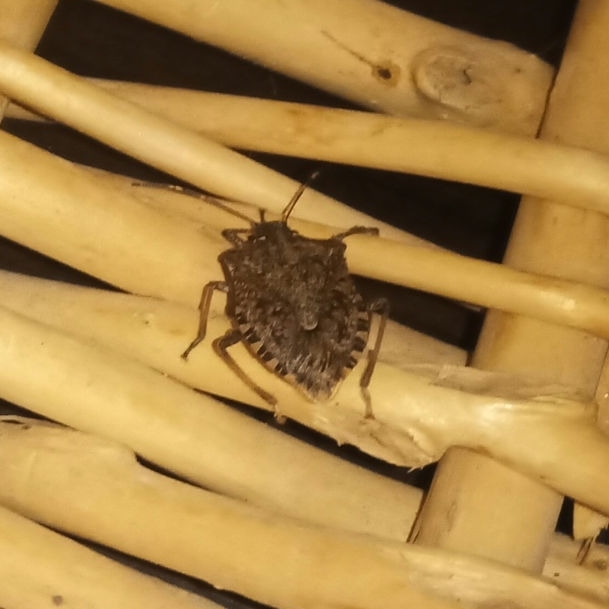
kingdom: Animalia
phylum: Arthropoda
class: Insecta
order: Hemiptera
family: Pentatomidae
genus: Halyomorpha
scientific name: Halyomorpha halys
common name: Brown marmorated stink bug
